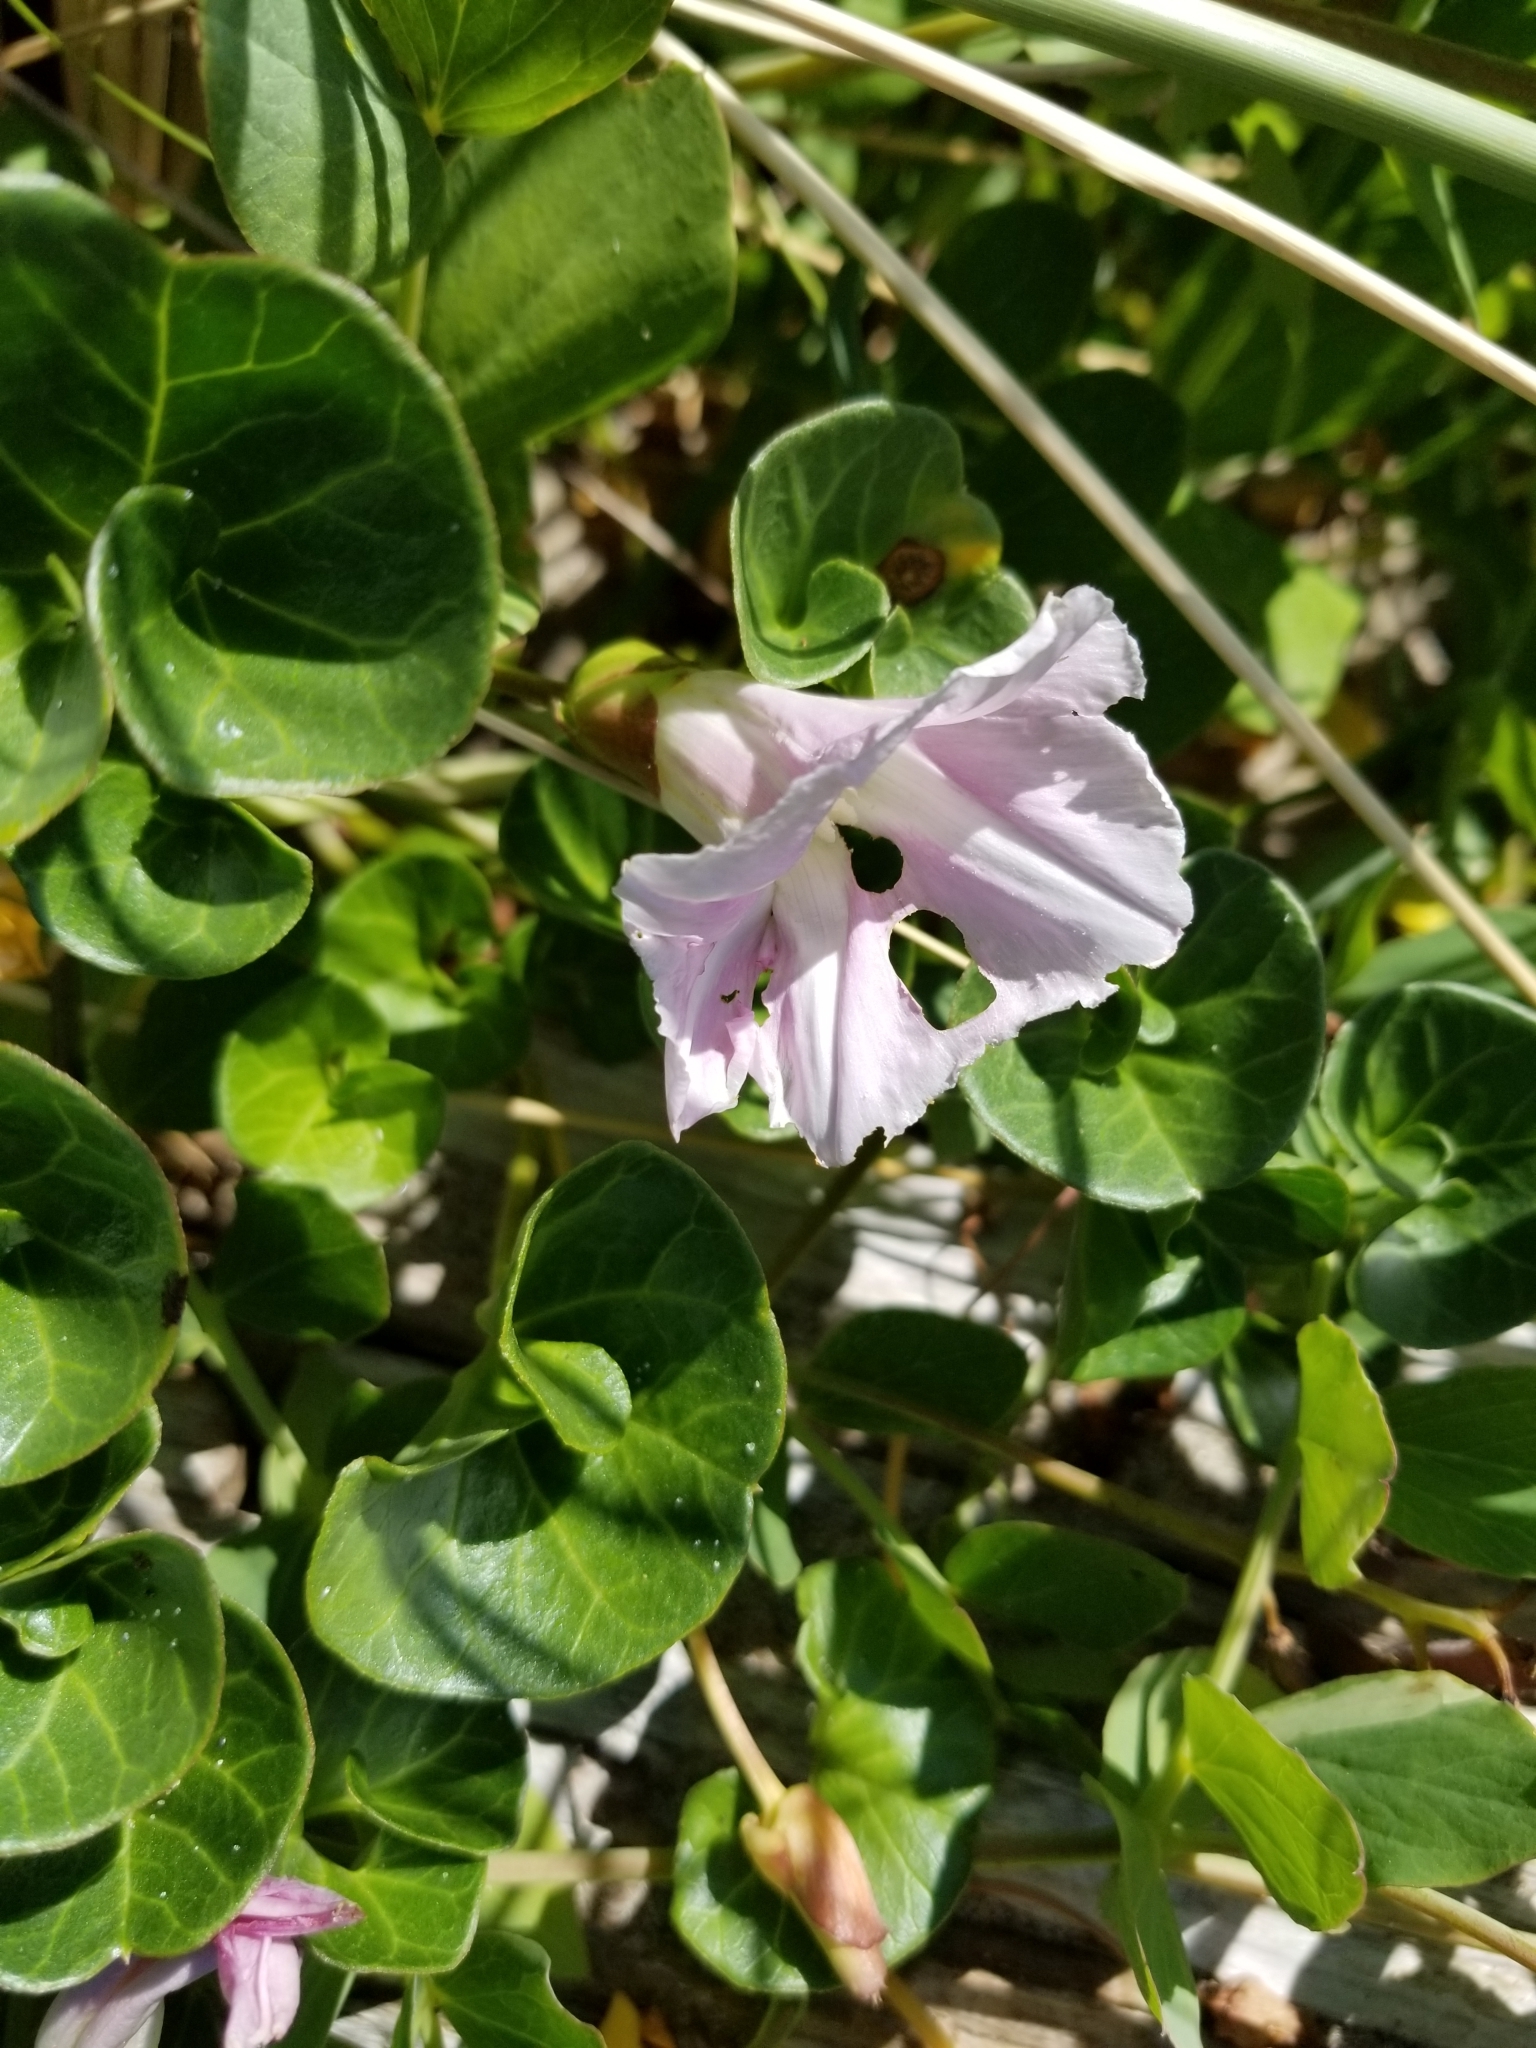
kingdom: Plantae
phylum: Tracheophyta
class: Magnoliopsida
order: Solanales
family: Convolvulaceae
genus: Calystegia
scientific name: Calystegia soldanella
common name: Sea bindweed
